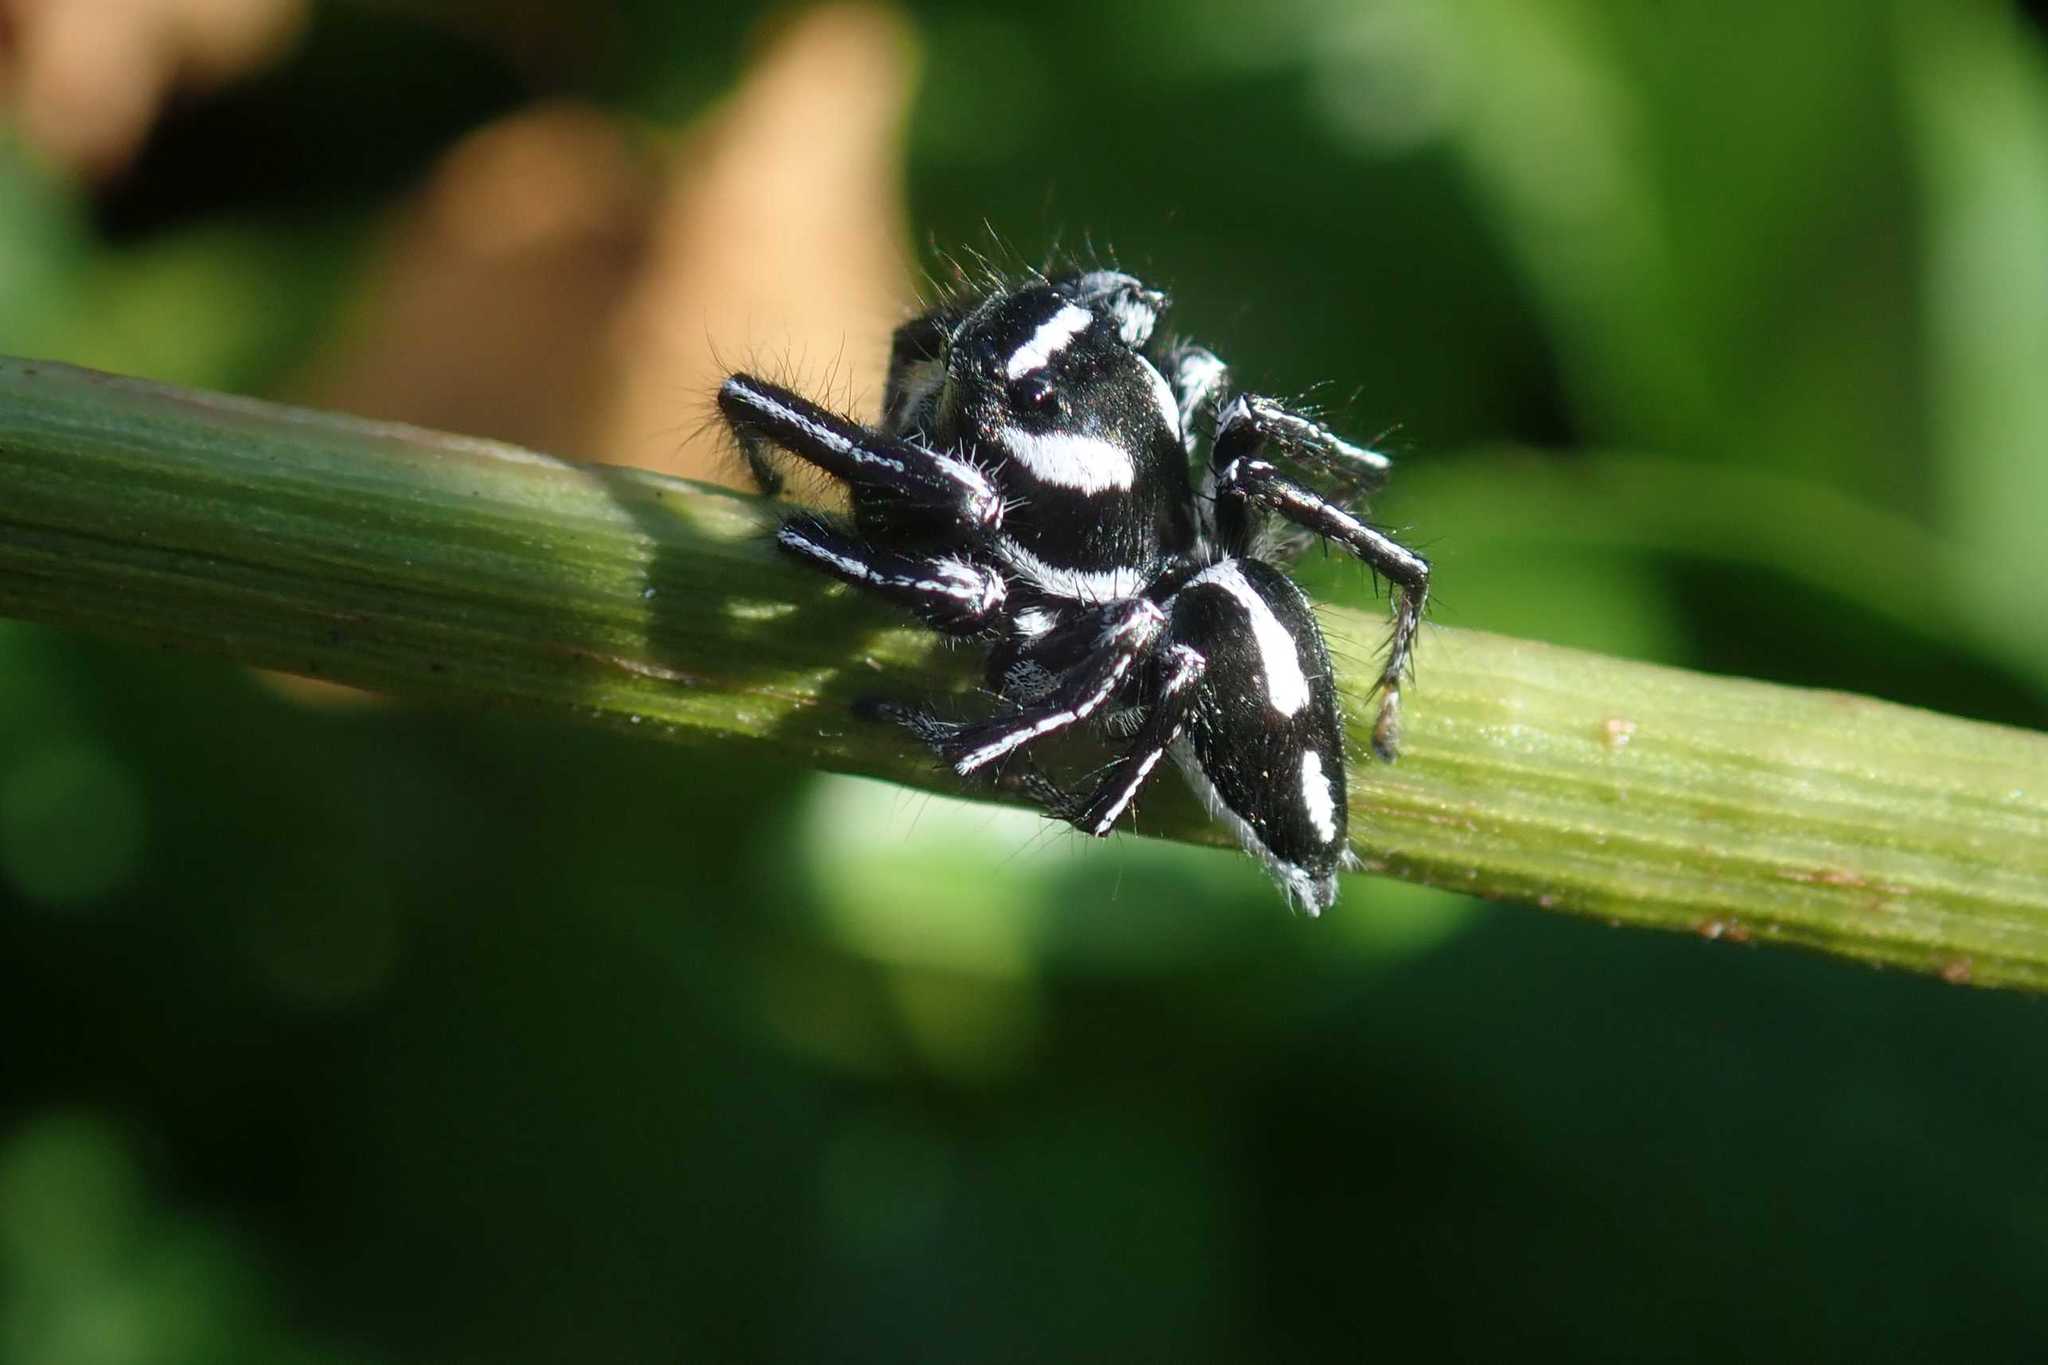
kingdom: Animalia
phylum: Arthropoda
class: Arachnida
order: Araneae
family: Salticidae
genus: Hyllus
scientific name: Hyllus argyrotoxus
